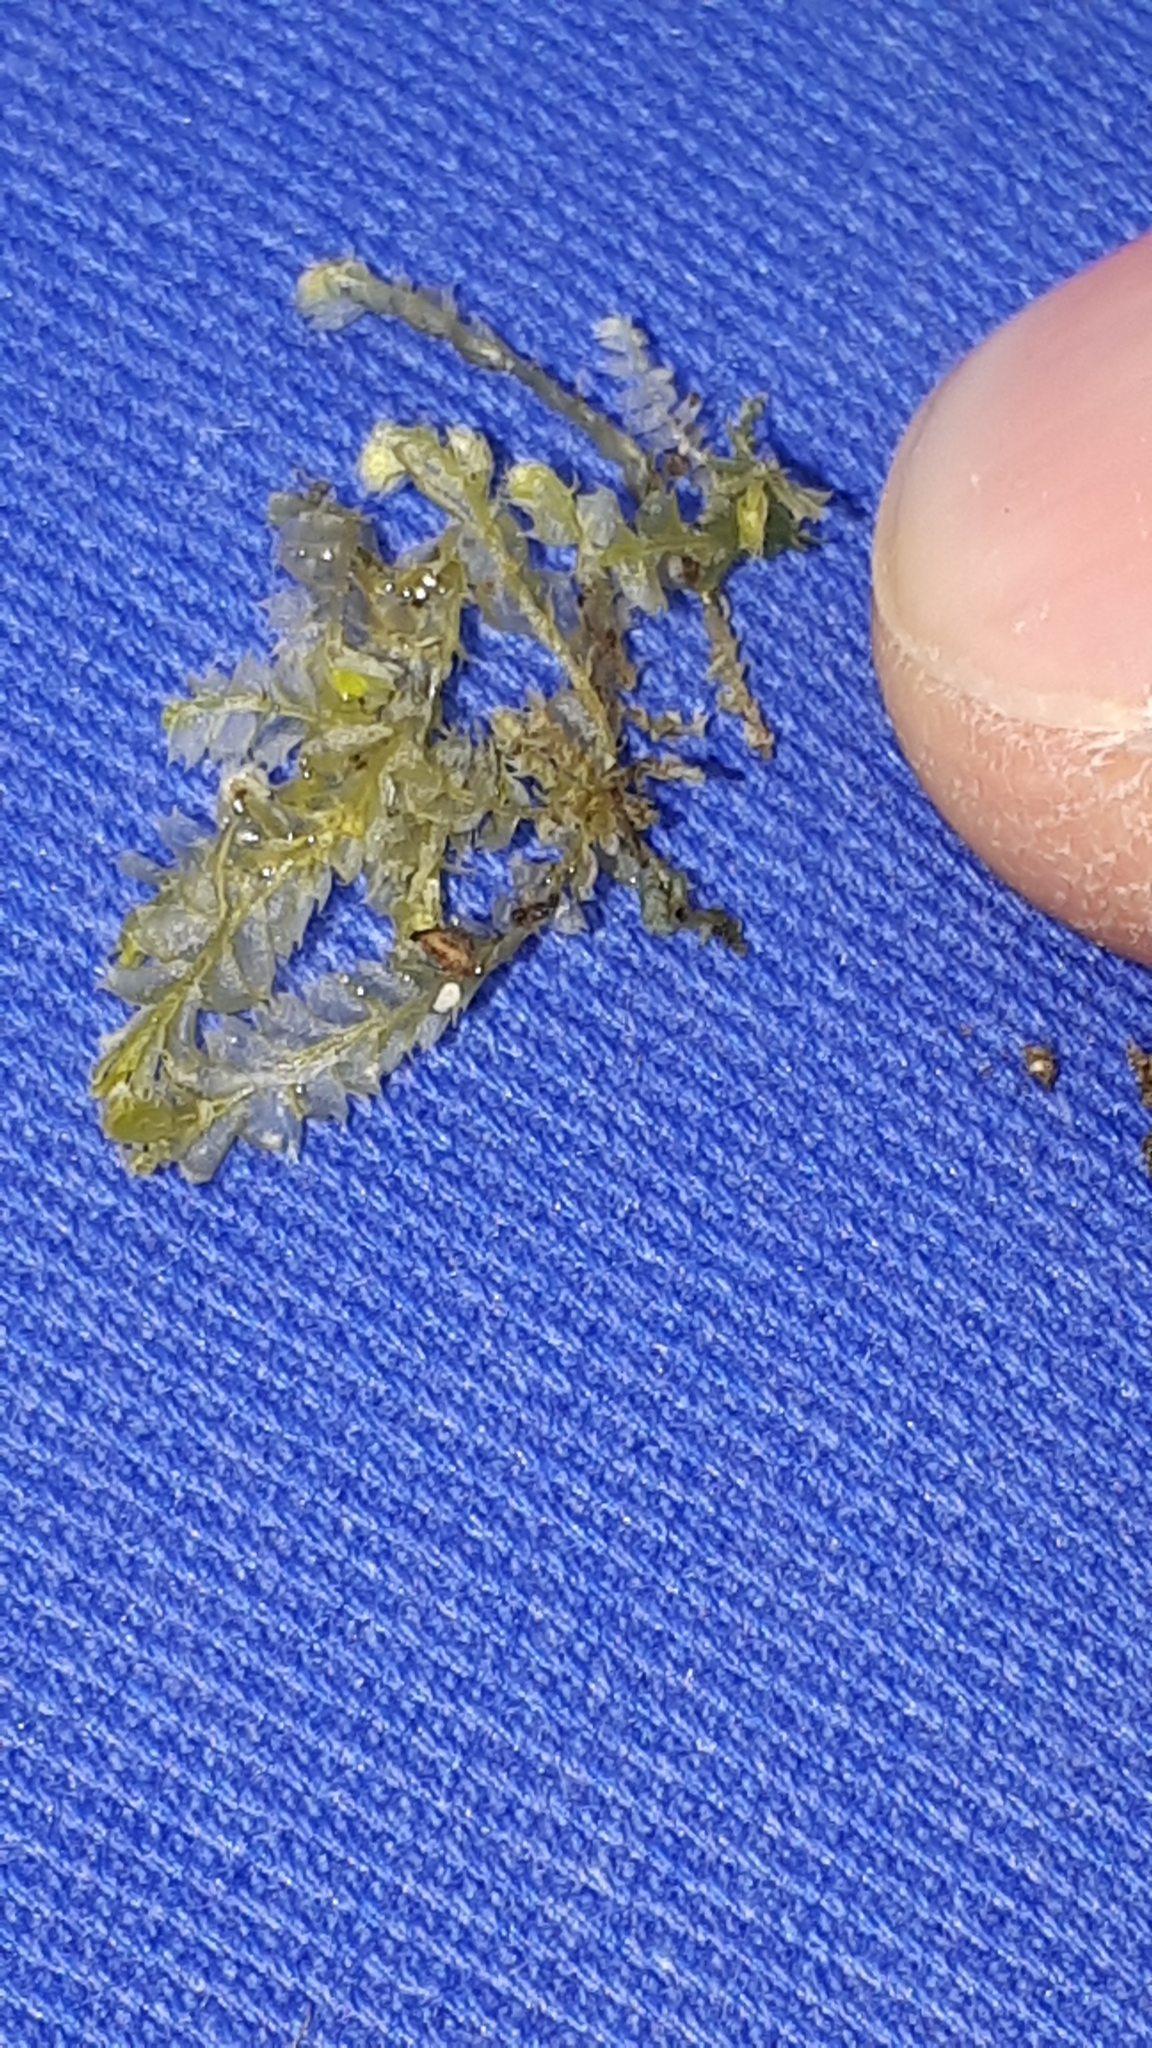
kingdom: Plantae
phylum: Marchantiophyta
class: Jungermanniopsida
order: Jungermanniales
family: Lophocoleaceae
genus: Lophocolea
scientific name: Lophocolea heterophylla
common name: Variable-leaved crestwort
